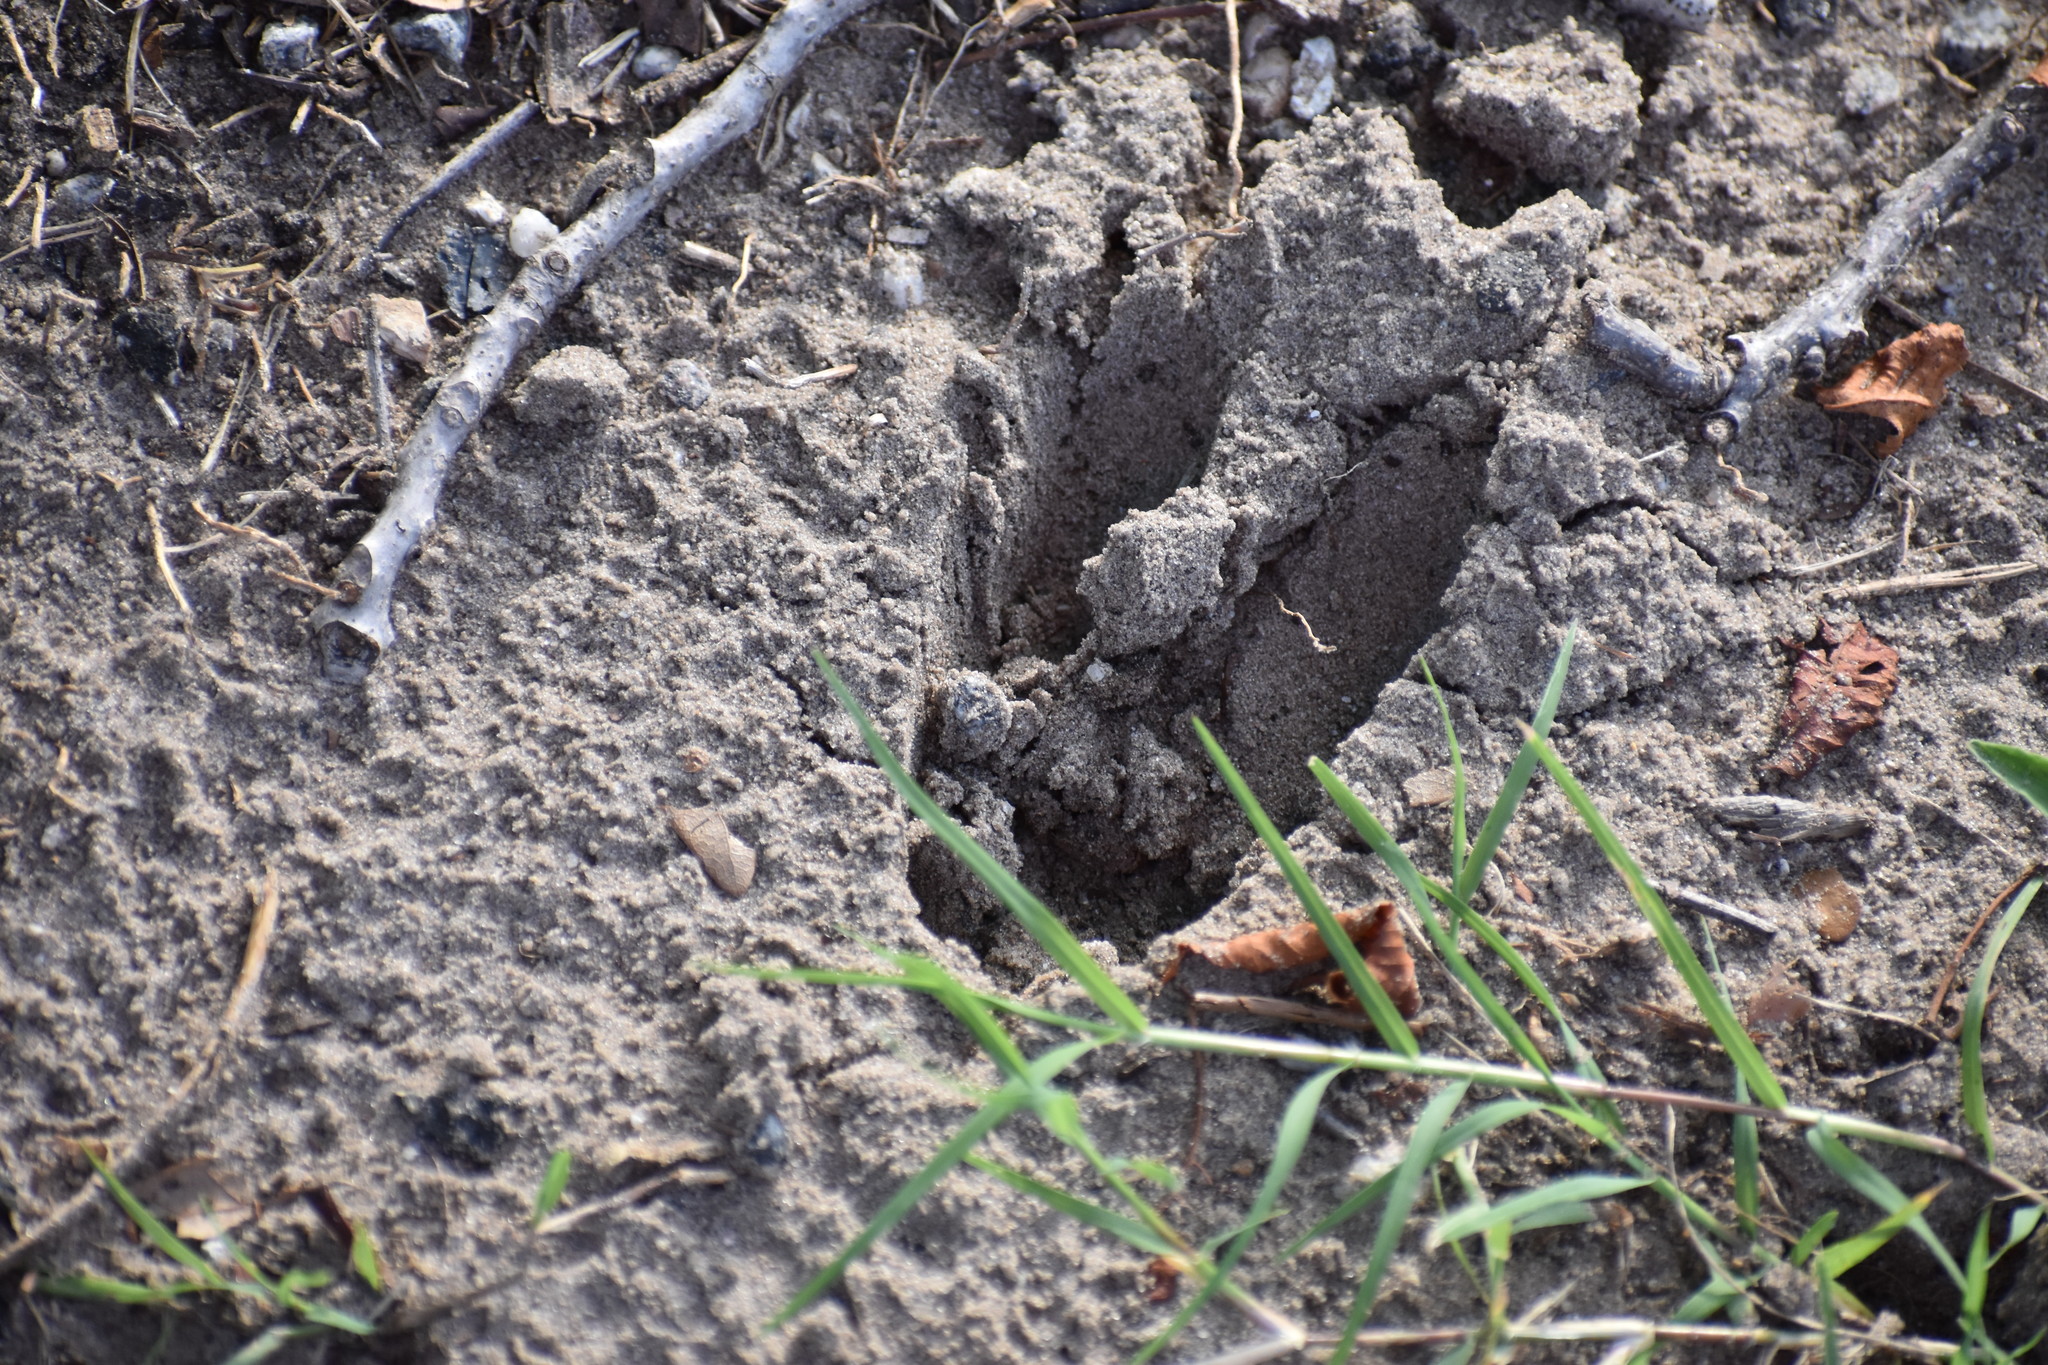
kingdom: Animalia
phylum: Chordata
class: Mammalia
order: Artiodactyla
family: Cervidae
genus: Odocoileus
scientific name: Odocoileus virginianus
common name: White-tailed deer
